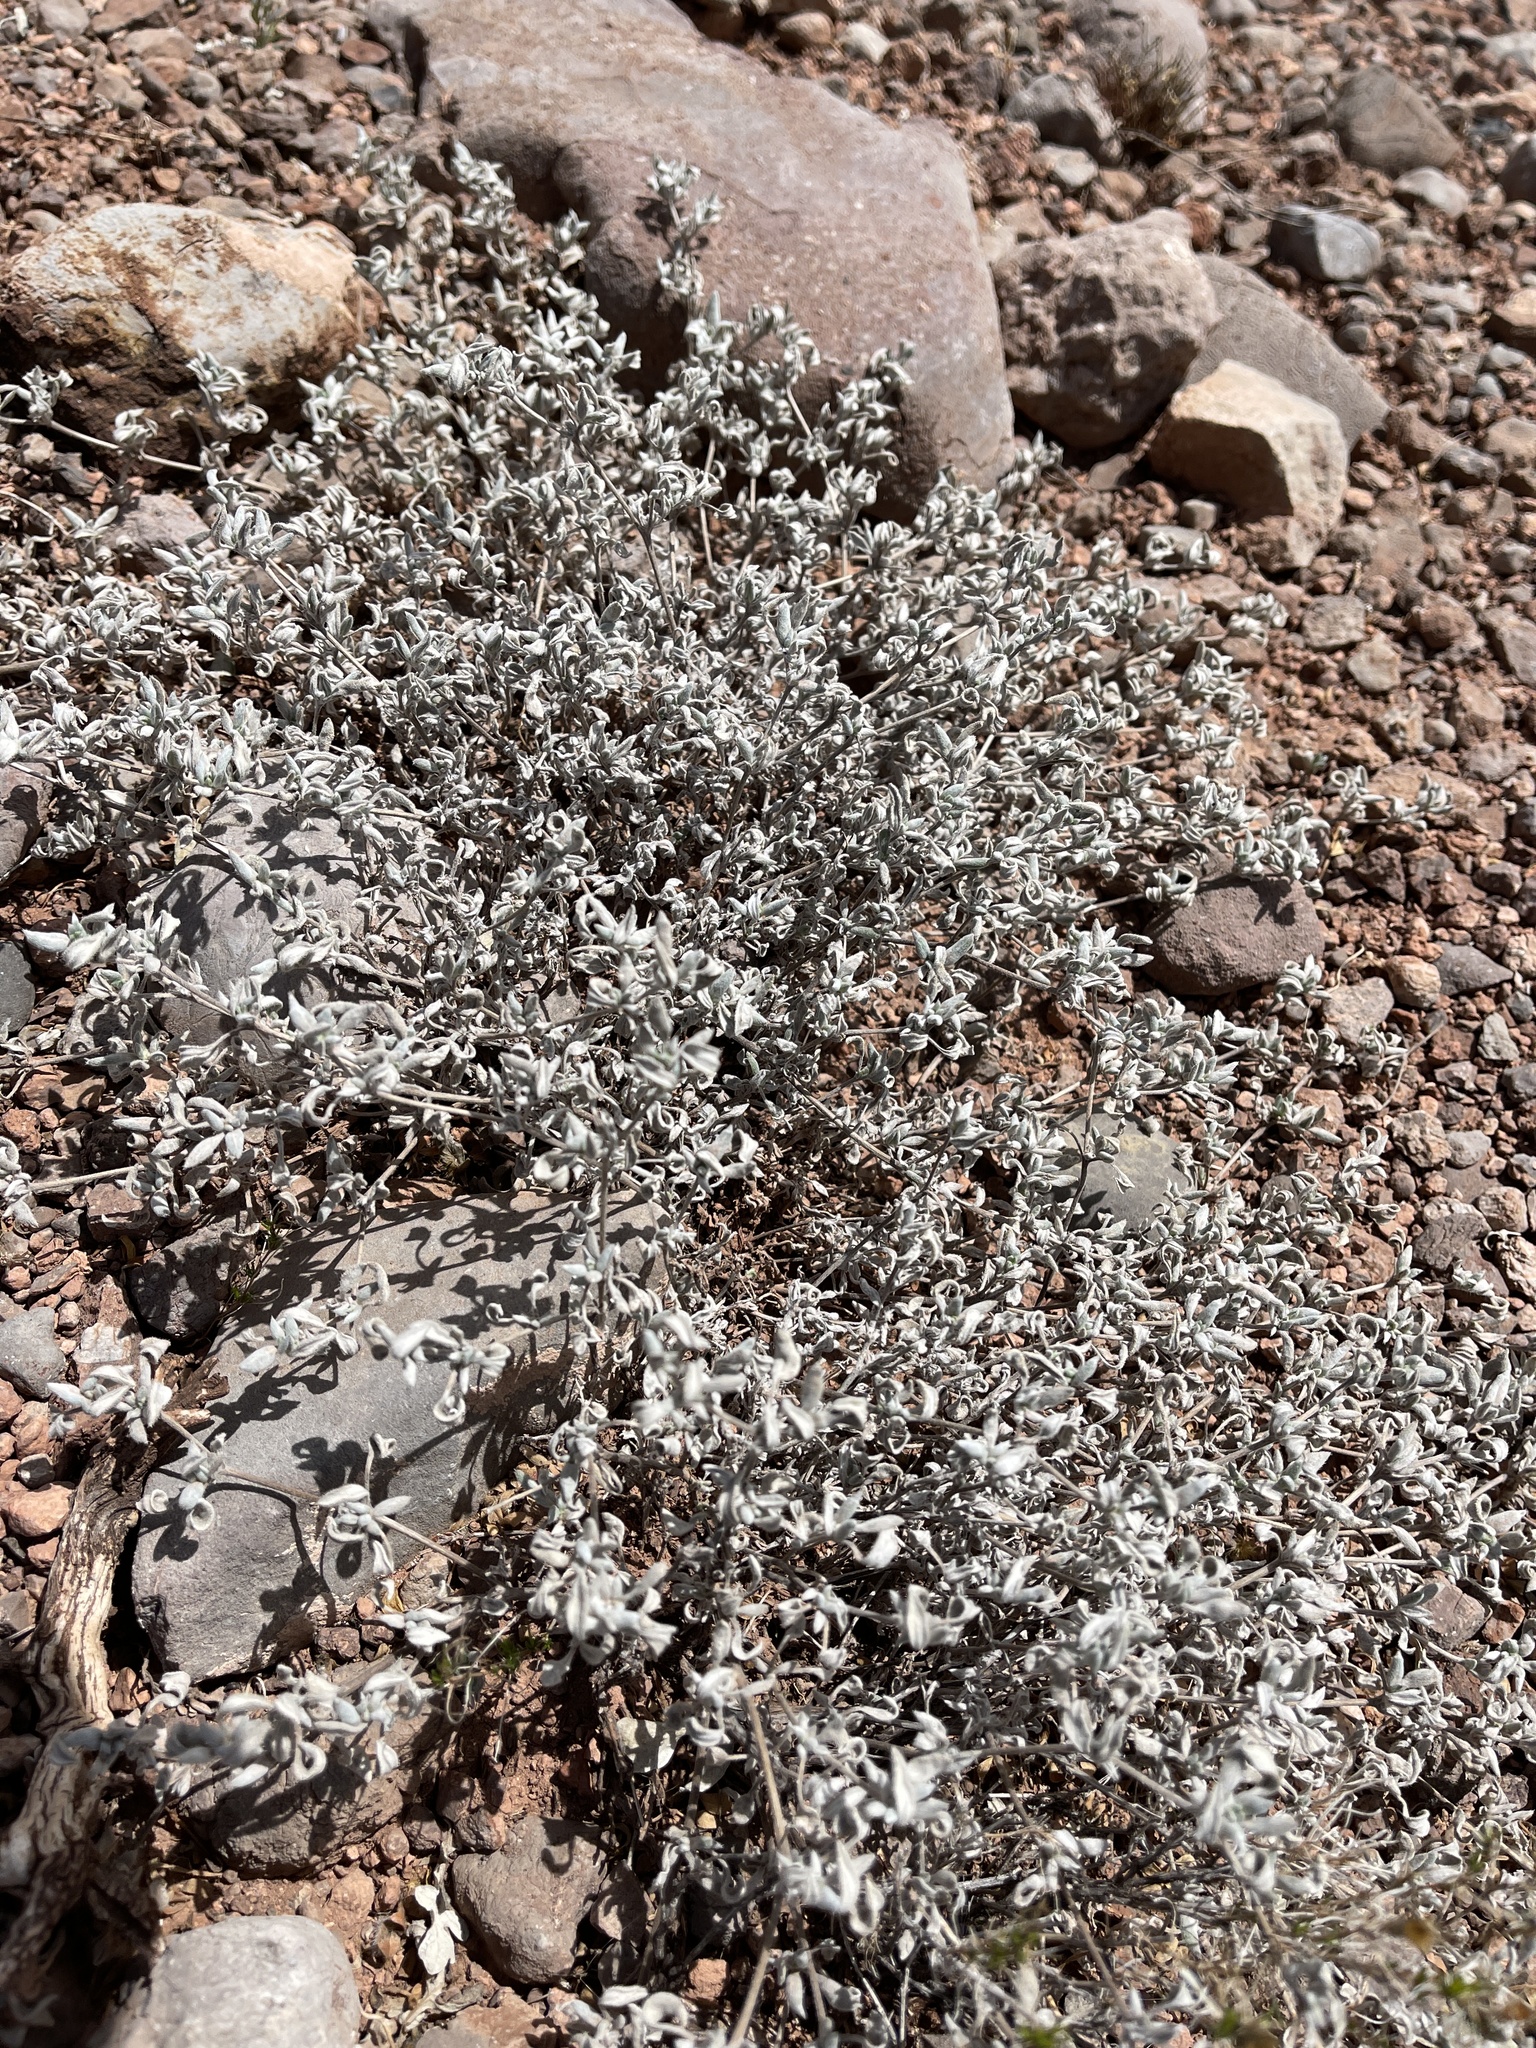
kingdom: Plantae
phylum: Tracheophyta
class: Magnoliopsida
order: Boraginales
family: Ehretiaceae
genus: Tiquilia
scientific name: Tiquilia canescens
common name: Hairy tiquilia
